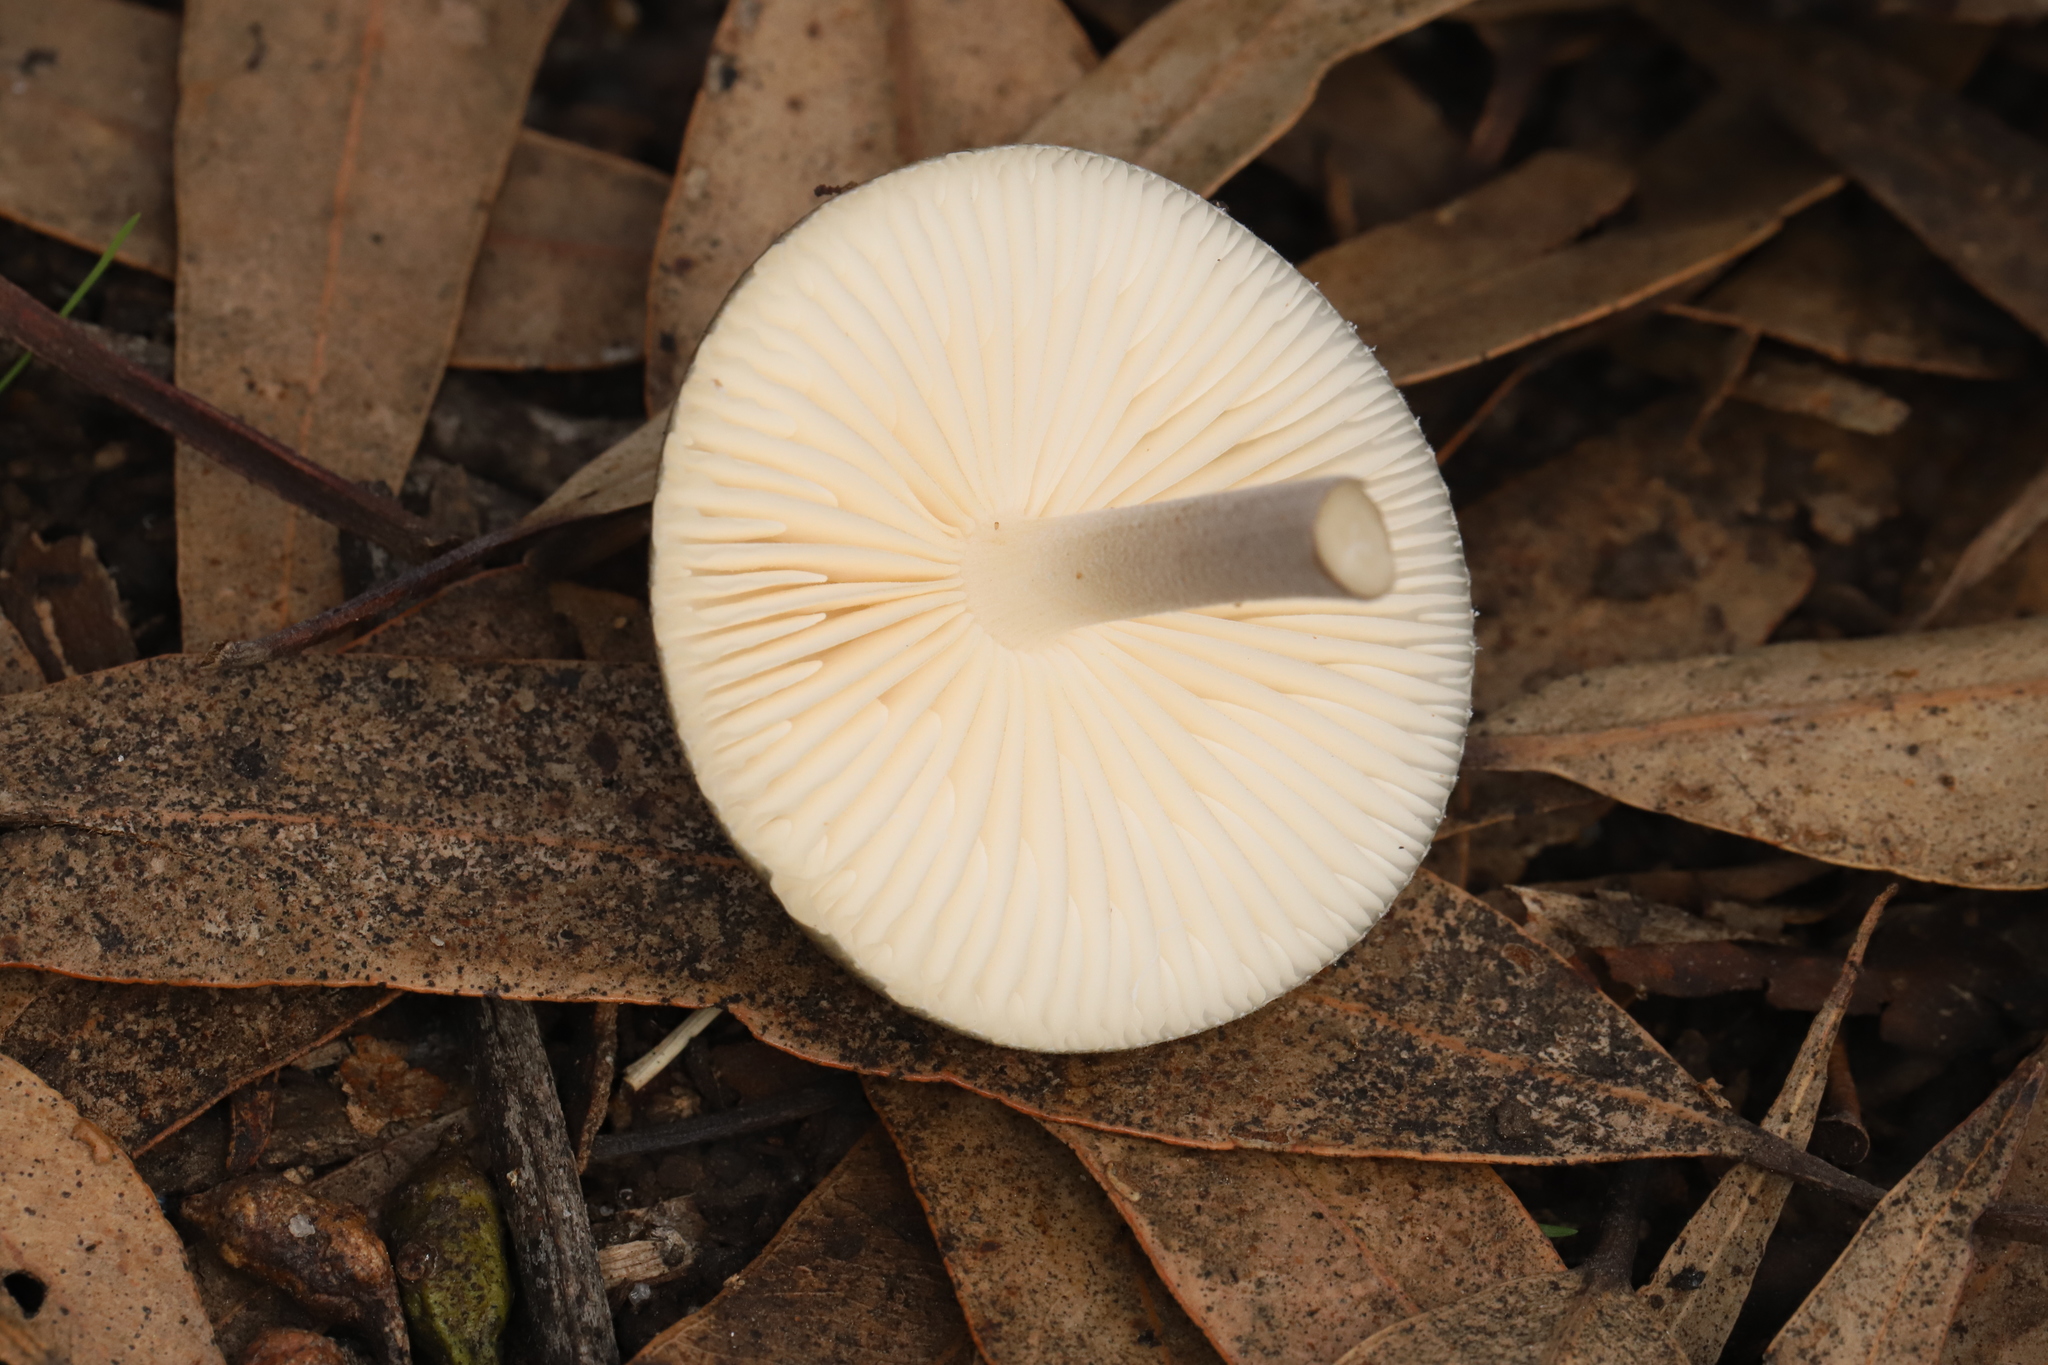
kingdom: Fungi
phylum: Basidiomycota
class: Agaricomycetes
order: Agaricales
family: Physalacriaceae
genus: Hymenopellis
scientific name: Hymenopellis gigaspora
